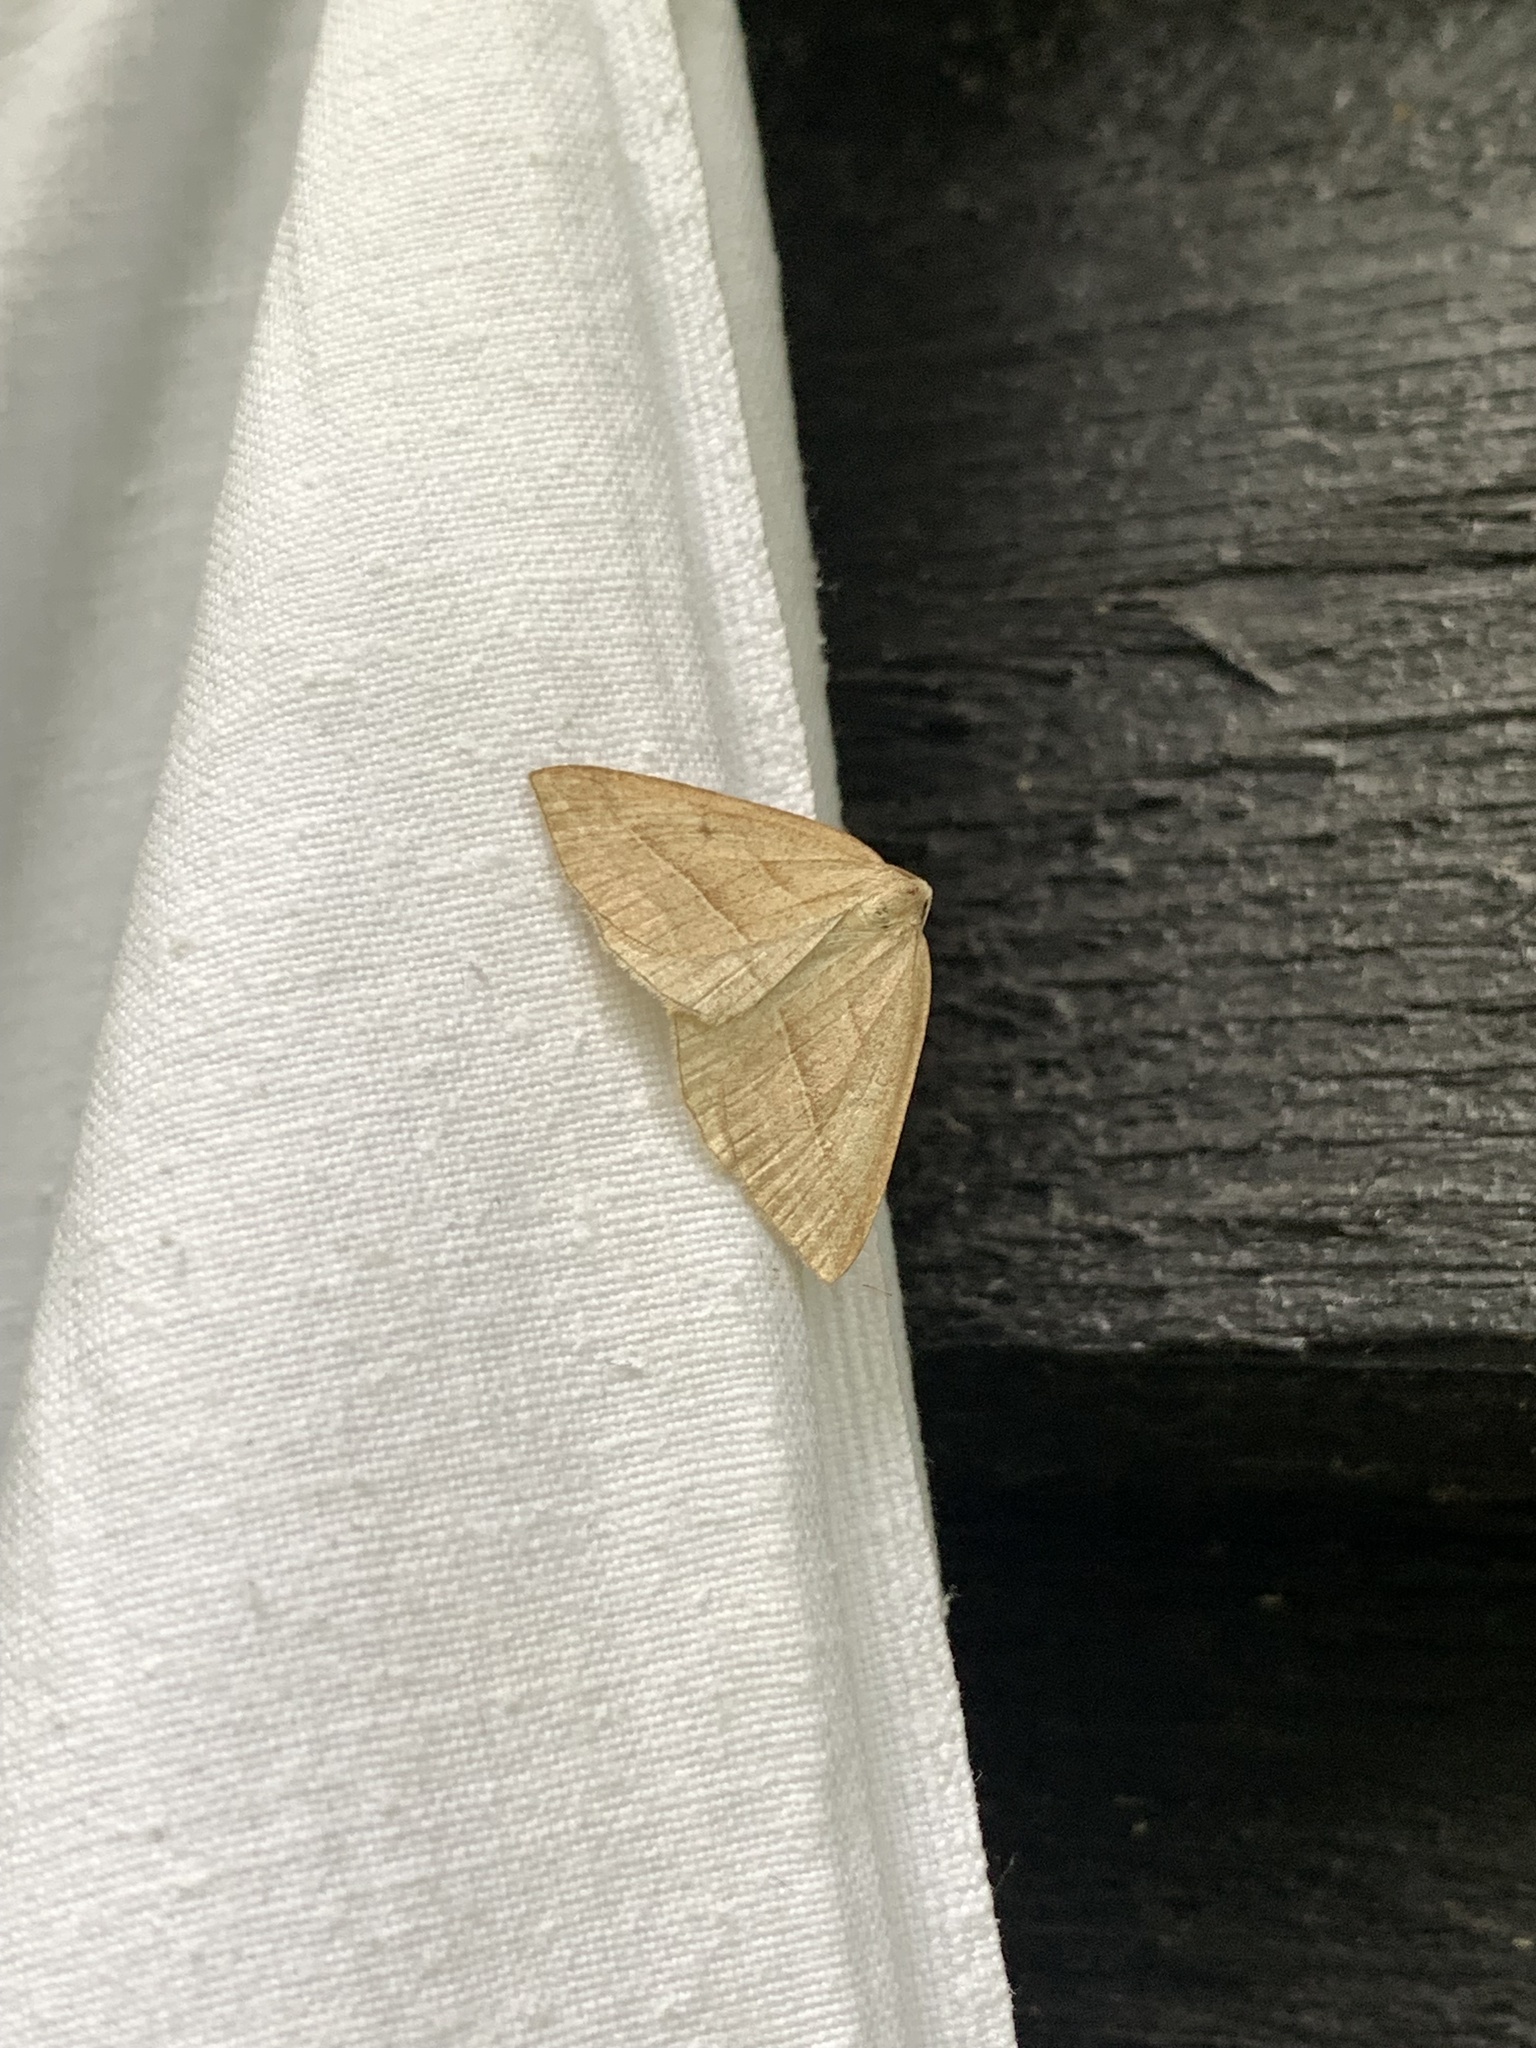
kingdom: Animalia
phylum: Arthropoda
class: Insecta
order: Lepidoptera
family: Pterophoridae
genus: Pterophorus
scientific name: Pterophorus Petrophora chlorosata
